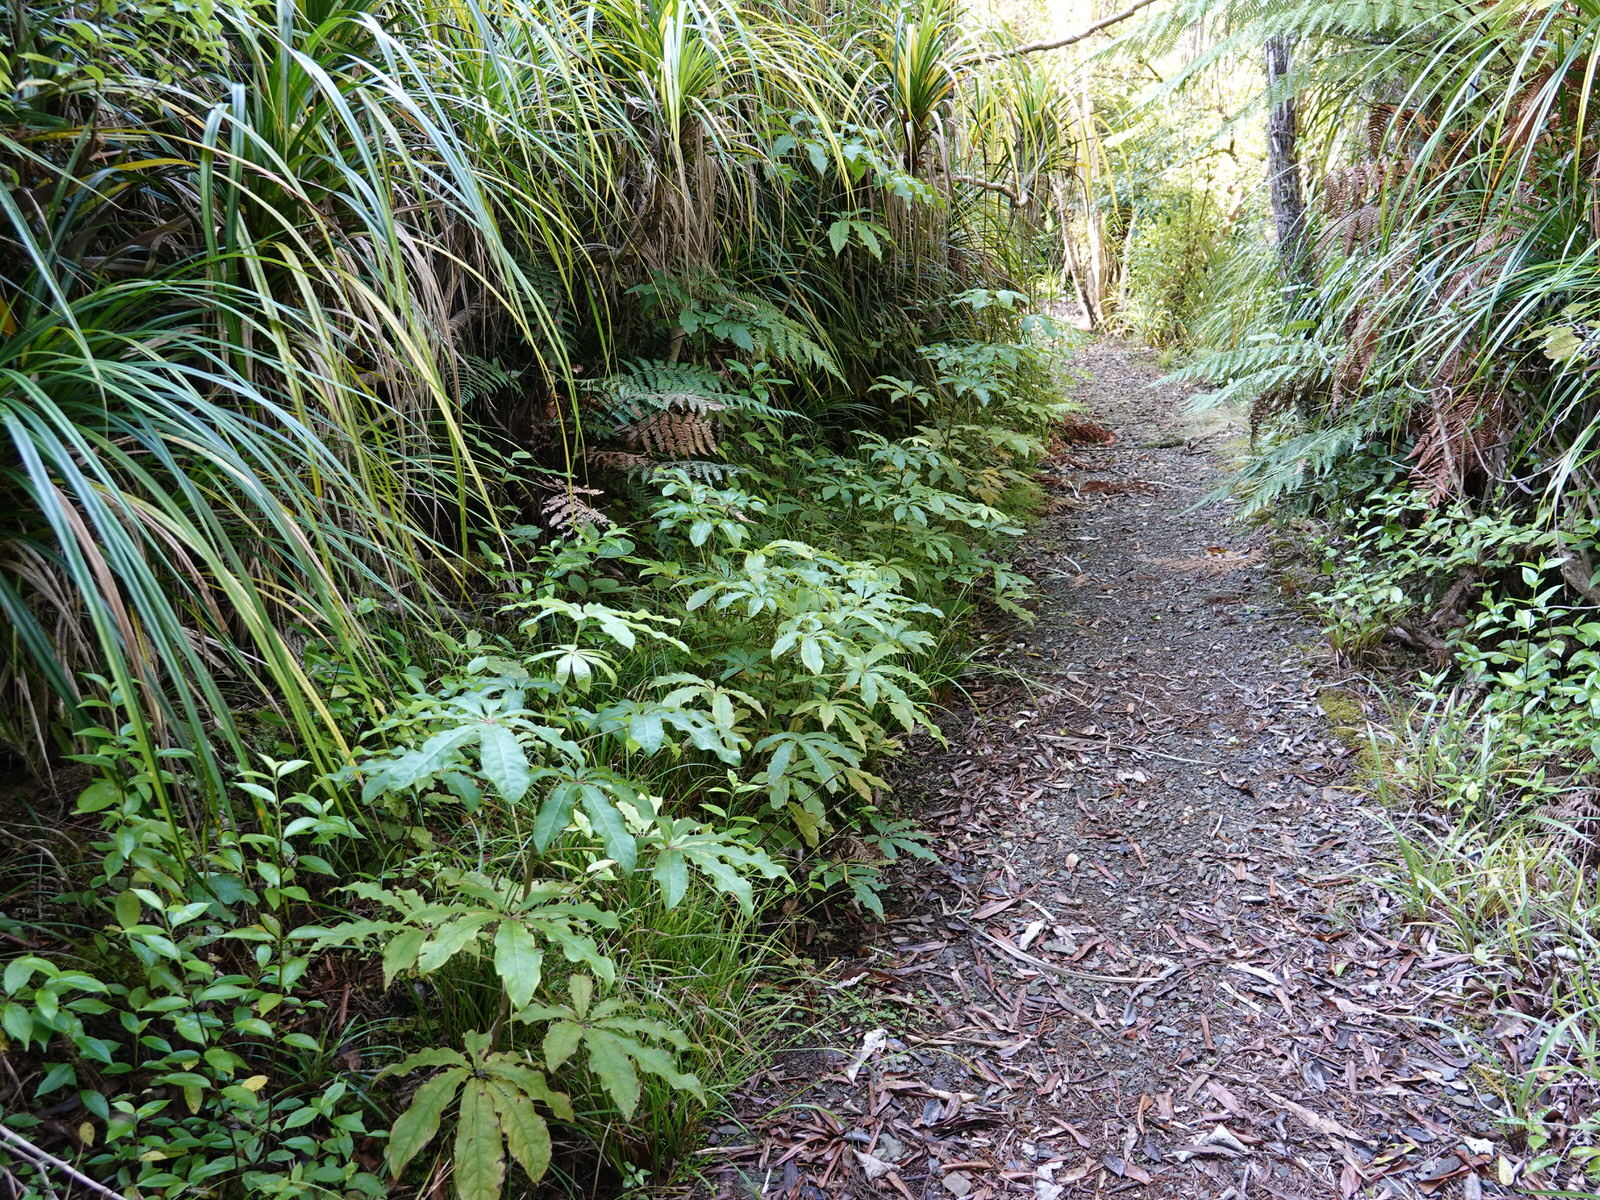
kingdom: Plantae
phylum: Tracheophyta
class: Magnoliopsida
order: Apiales
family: Araliaceae
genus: Schefflera
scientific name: Schefflera digitata
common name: Pate
